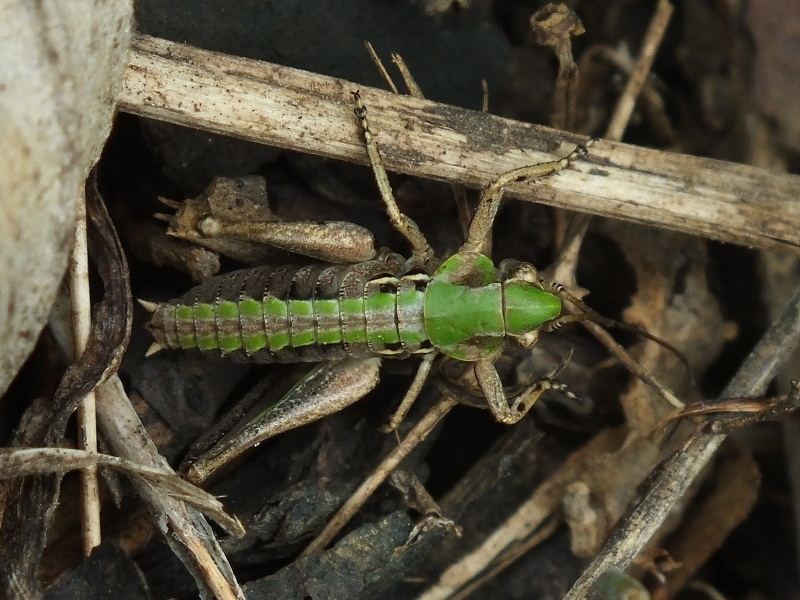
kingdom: Animalia
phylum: Arthropoda
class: Insecta
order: Orthoptera
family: Tettigoniidae
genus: Decticus
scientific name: Decticus verrucivorus
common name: Wart-biter
